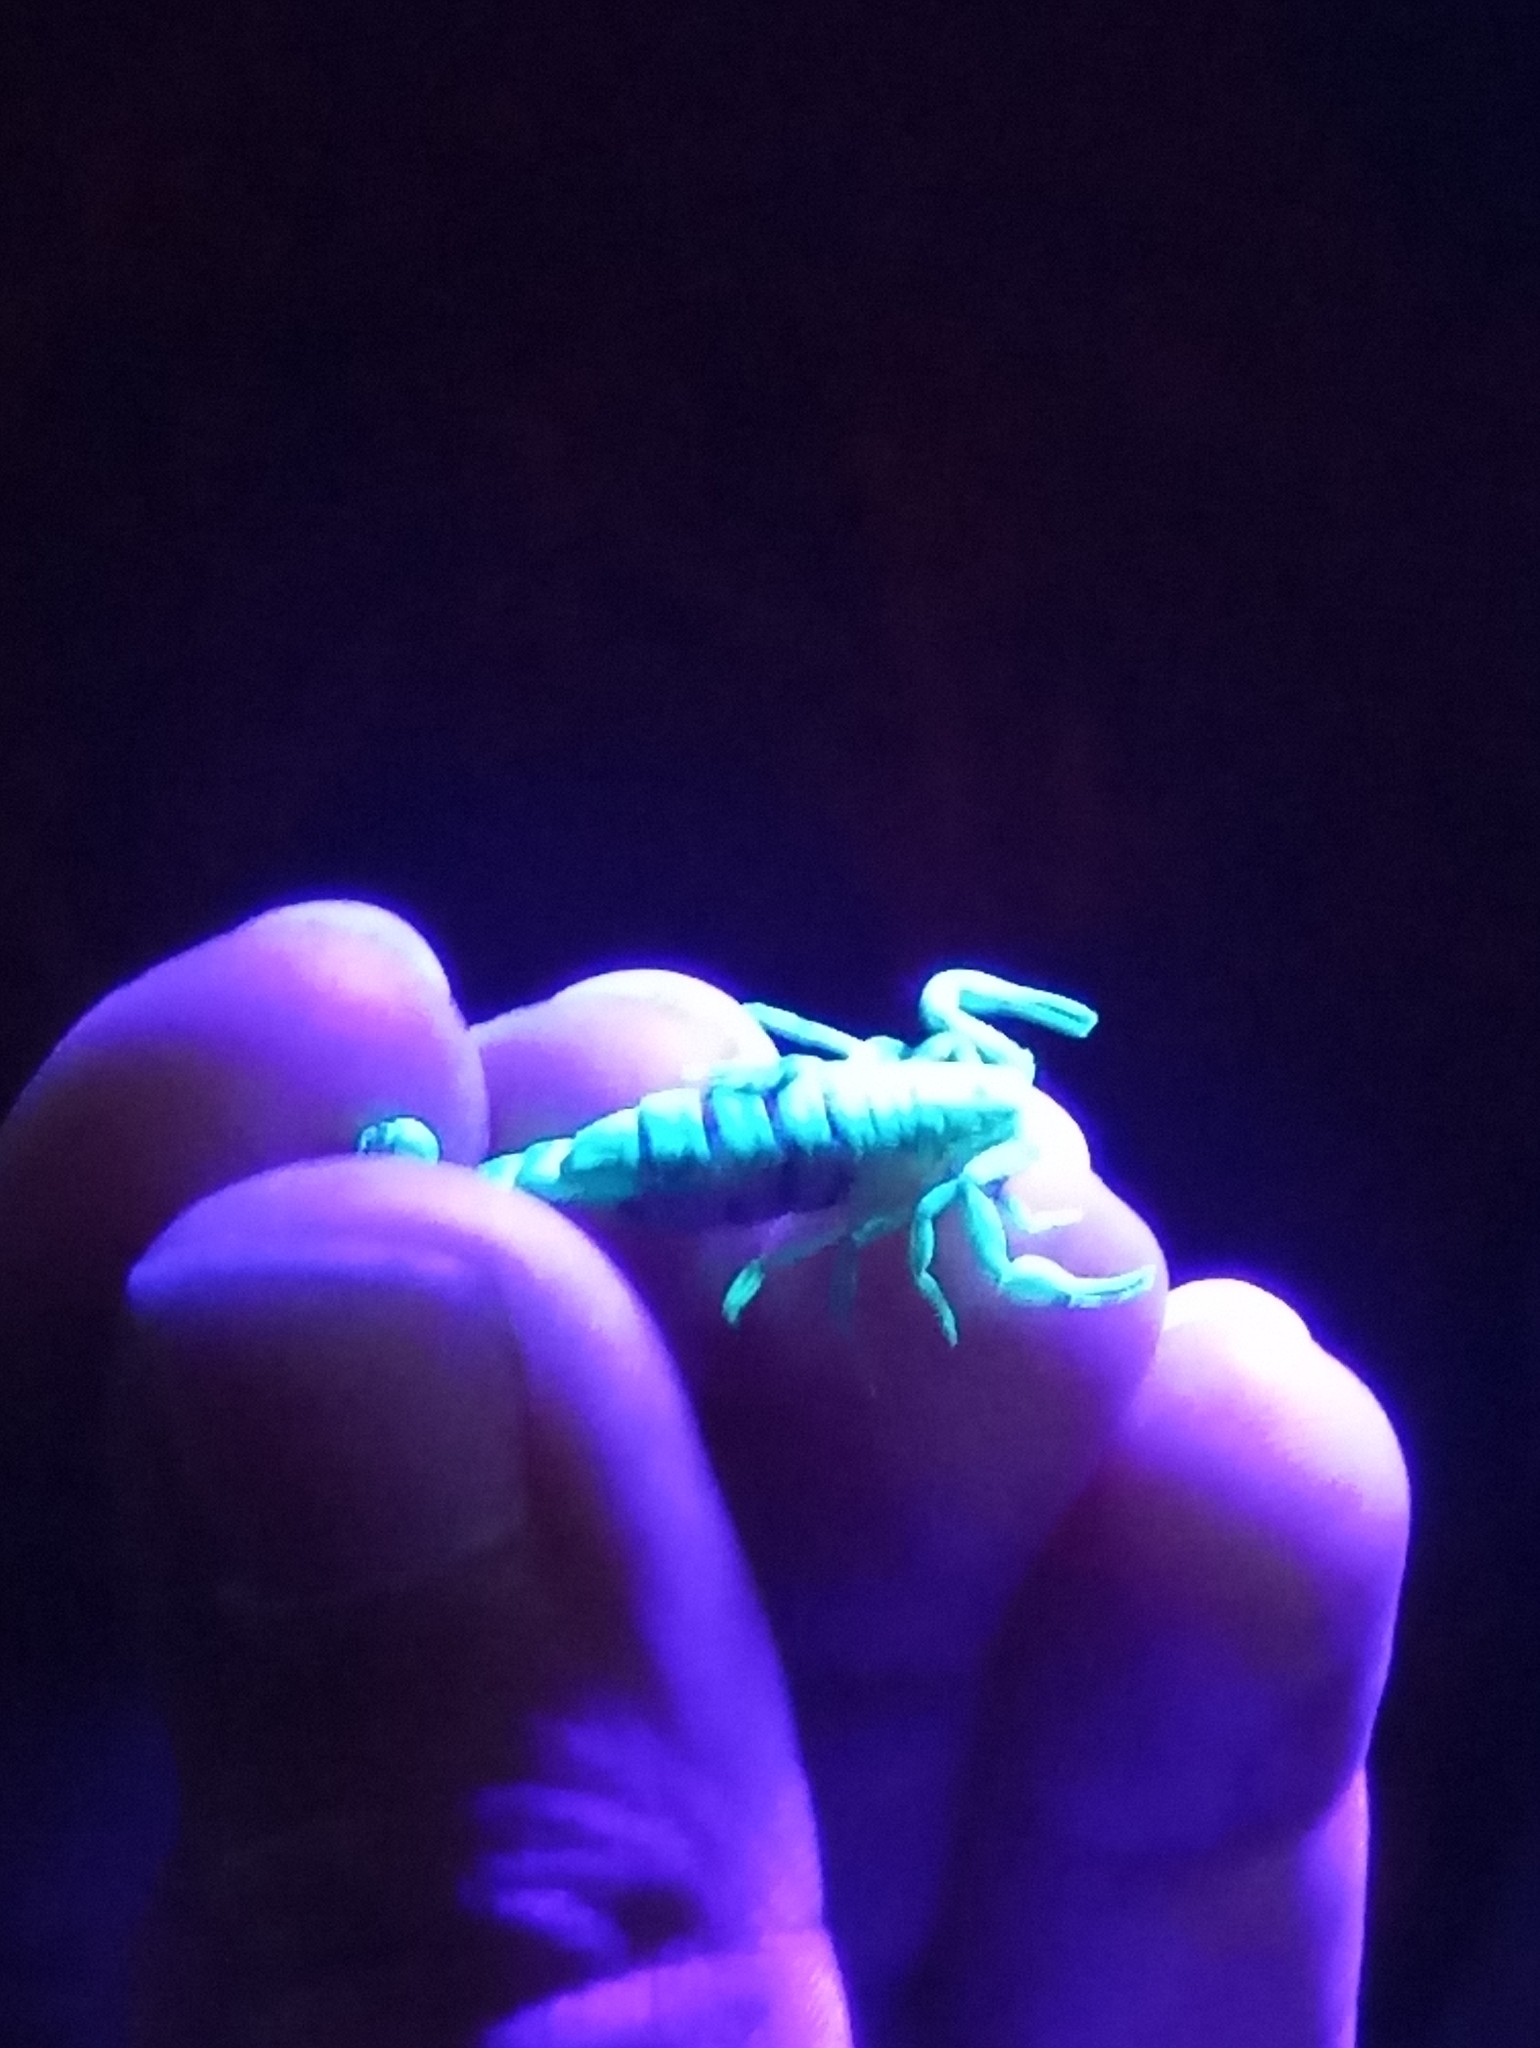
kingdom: Animalia
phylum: Arthropoda
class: Arachnida
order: Scorpiones
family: Vaejovidae
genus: Serradigitus
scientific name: Serradigitus gertschi
